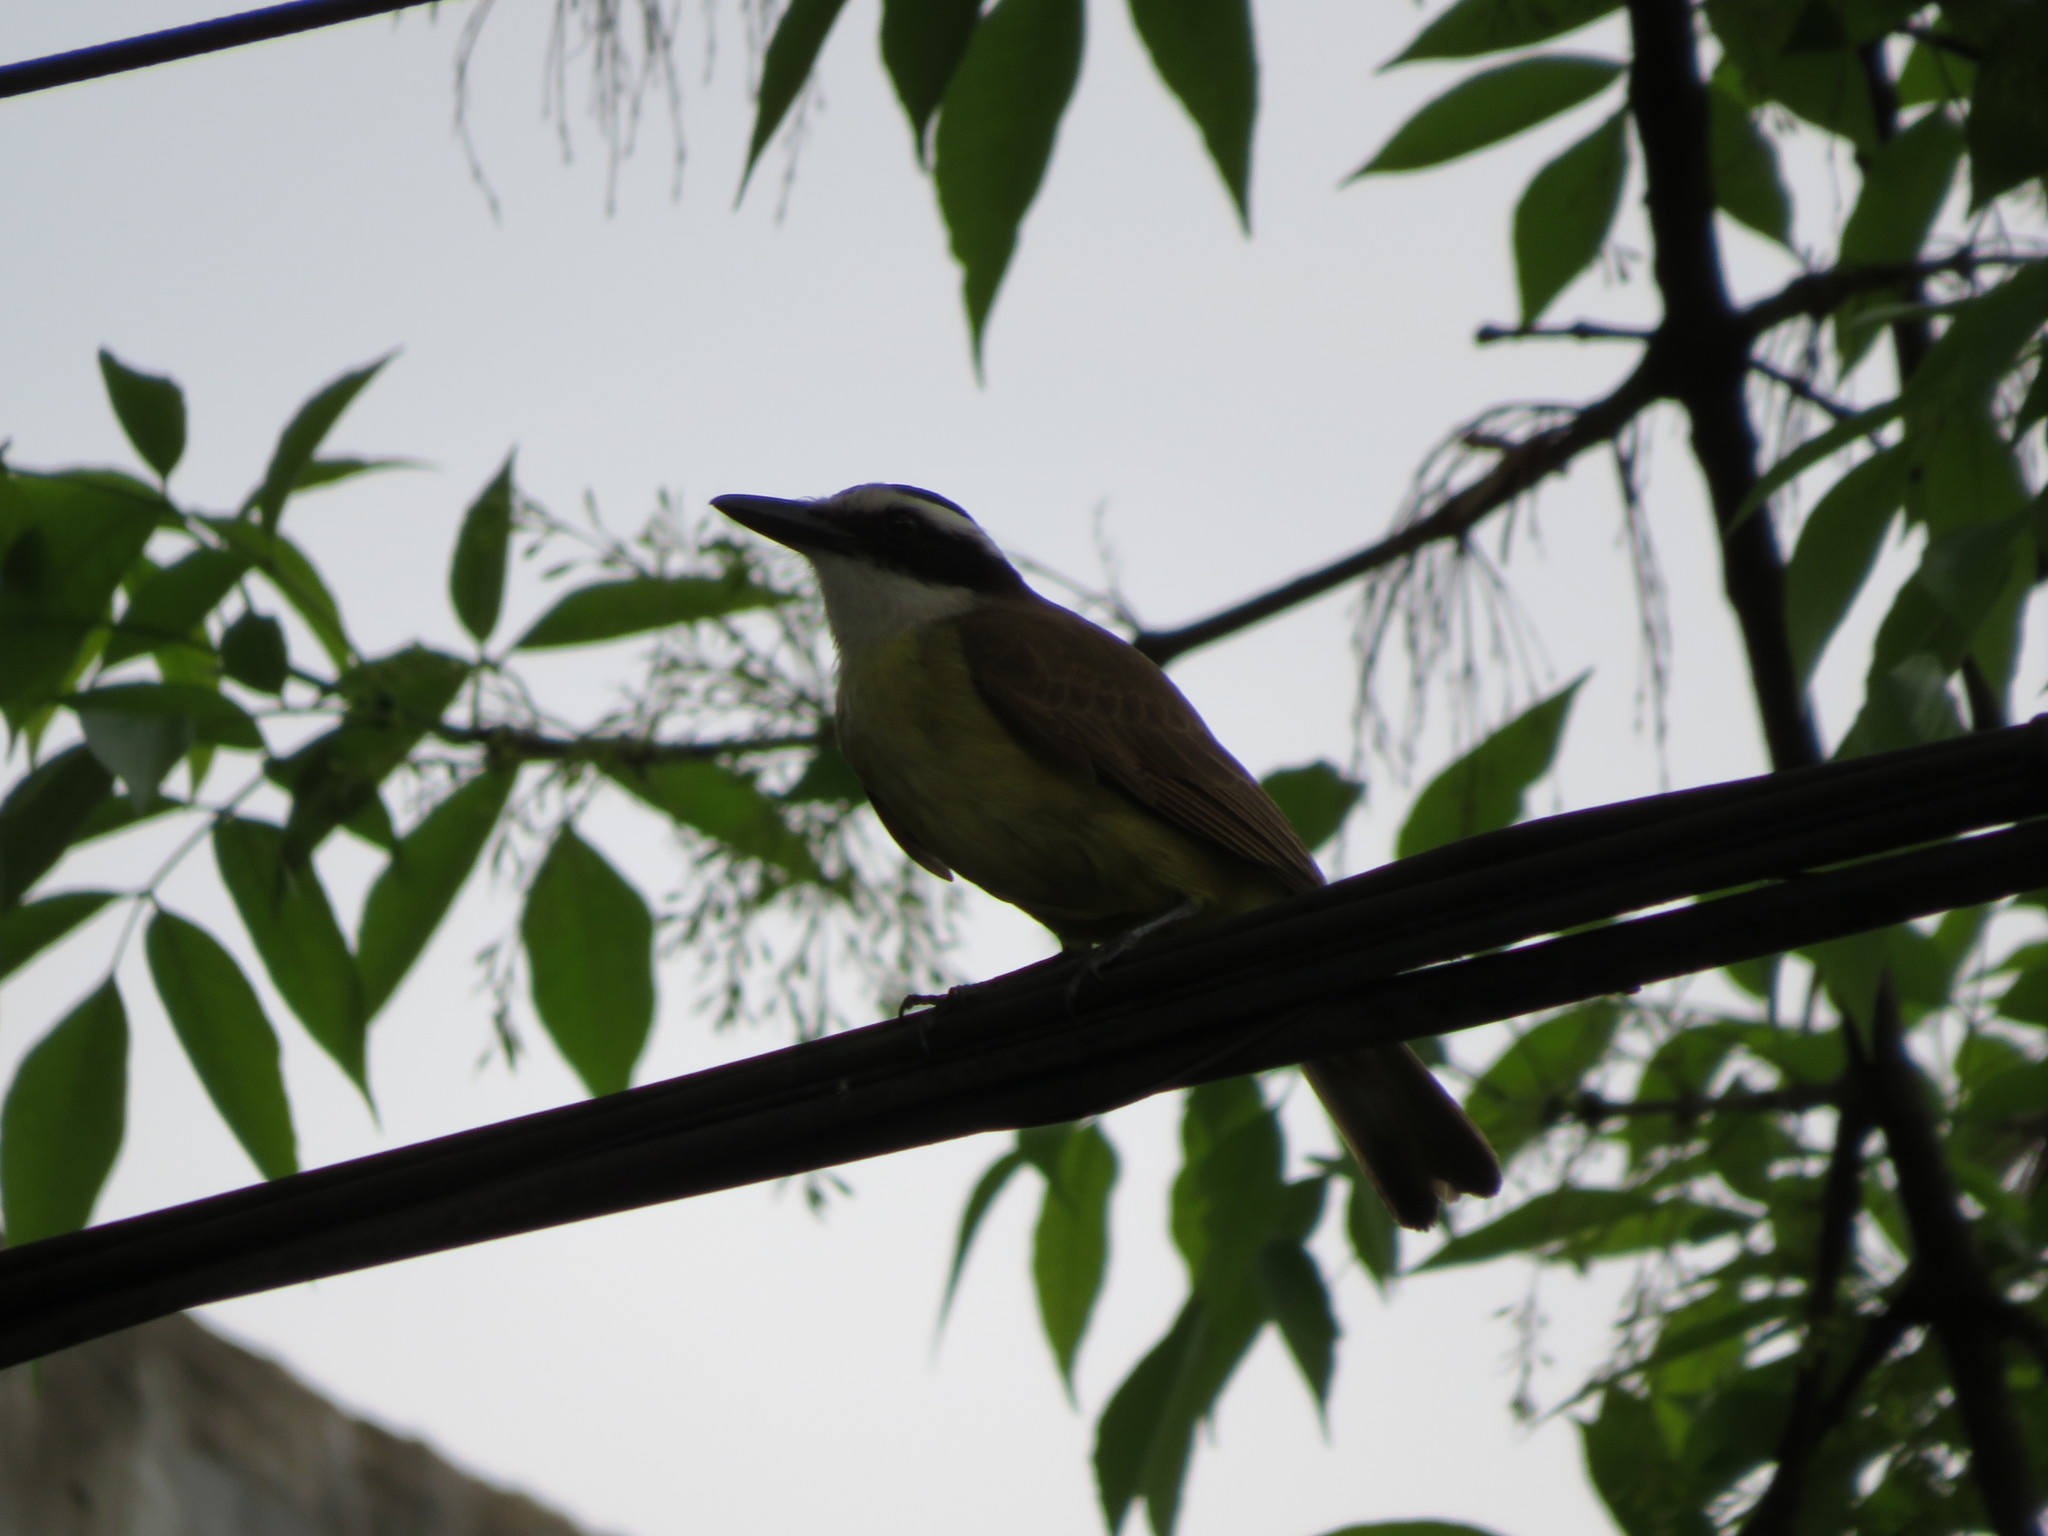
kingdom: Animalia
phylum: Chordata
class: Aves
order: Passeriformes
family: Tyrannidae
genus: Pitangus
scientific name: Pitangus sulphuratus
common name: Great kiskadee
